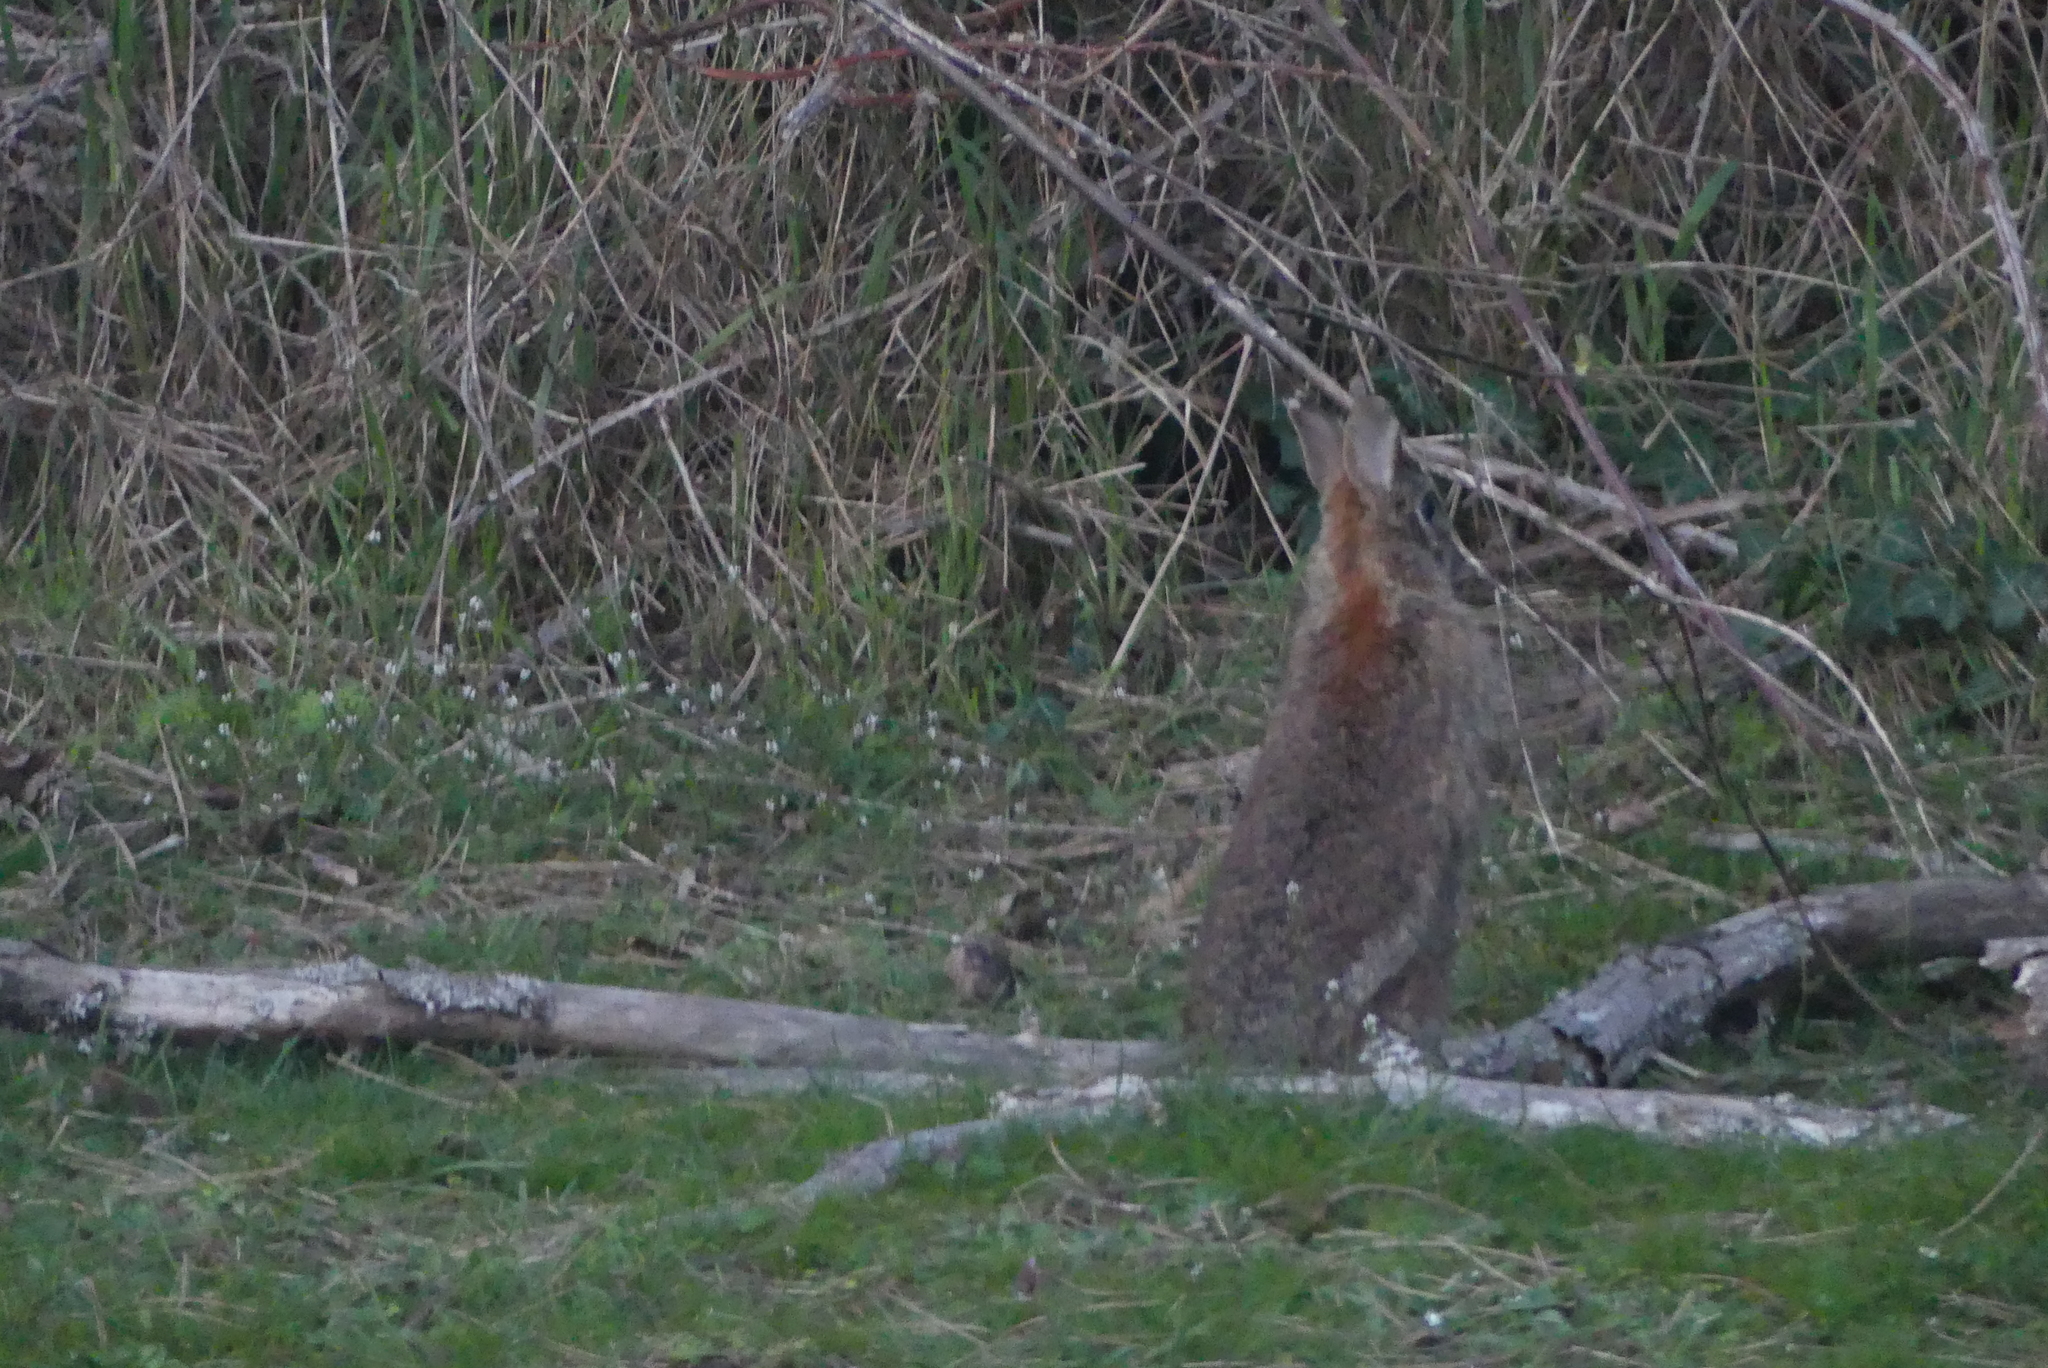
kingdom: Animalia
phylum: Chordata
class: Mammalia
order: Lagomorpha
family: Leporidae
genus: Sylvilagus
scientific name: Sylvilagus floridanus
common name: Eastern cottontail
